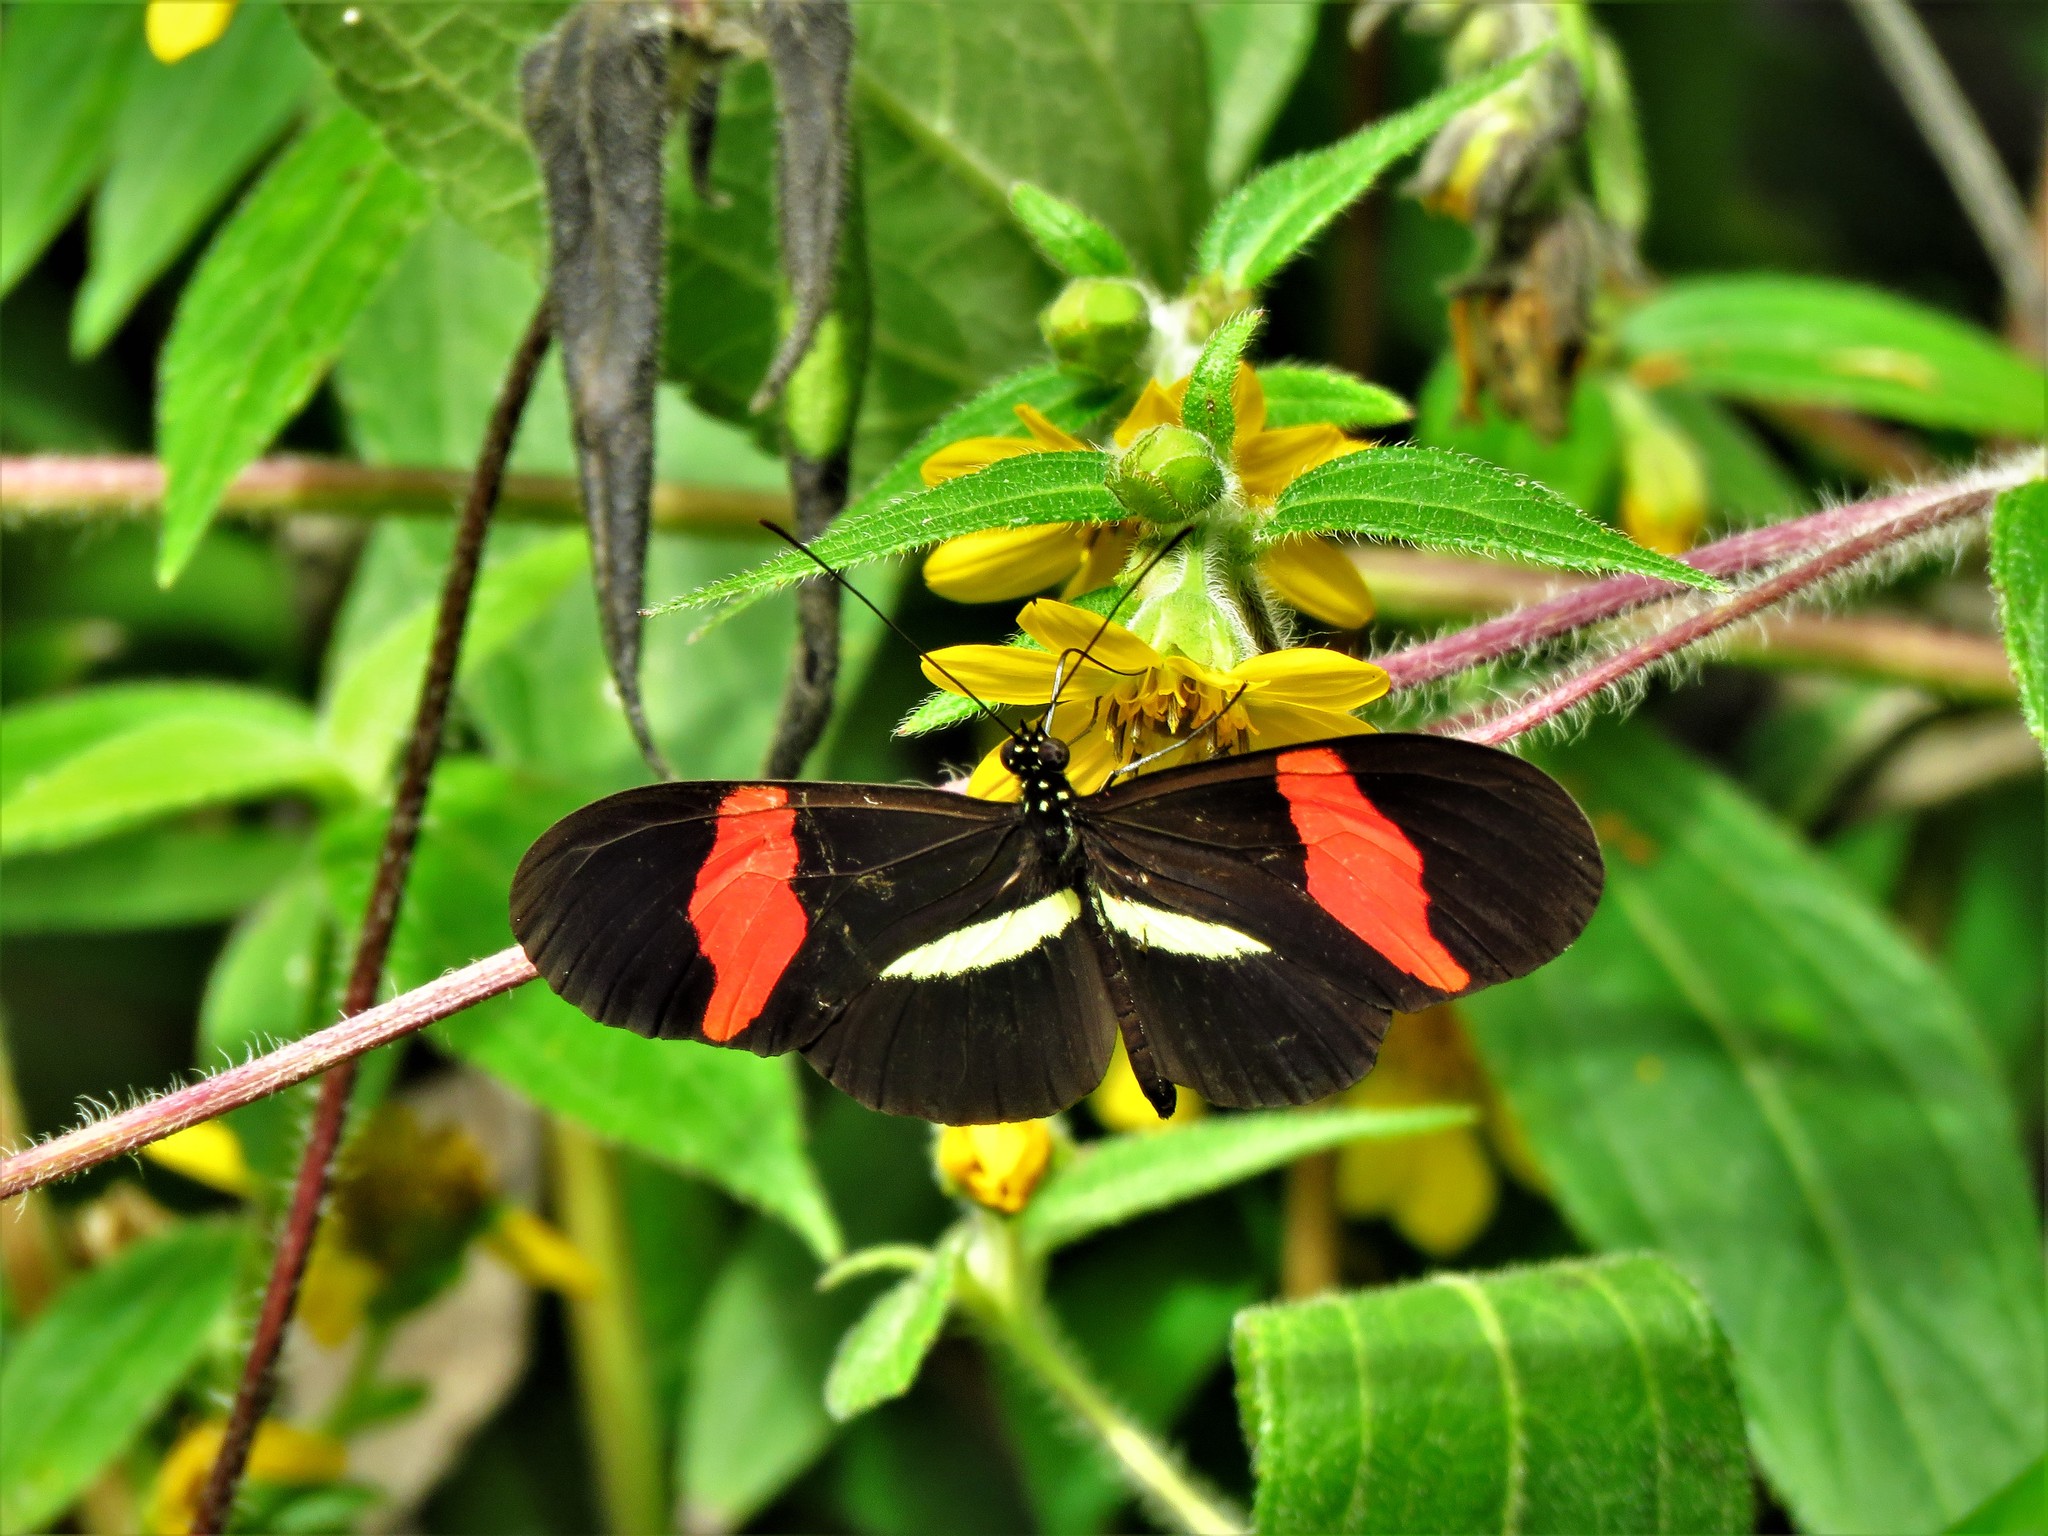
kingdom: Animalia
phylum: Arthropoda
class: Insecta
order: Lepidoptera
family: Nymphalidae
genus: Tirumala
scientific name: Tirumala petiverana
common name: Blue monarch
